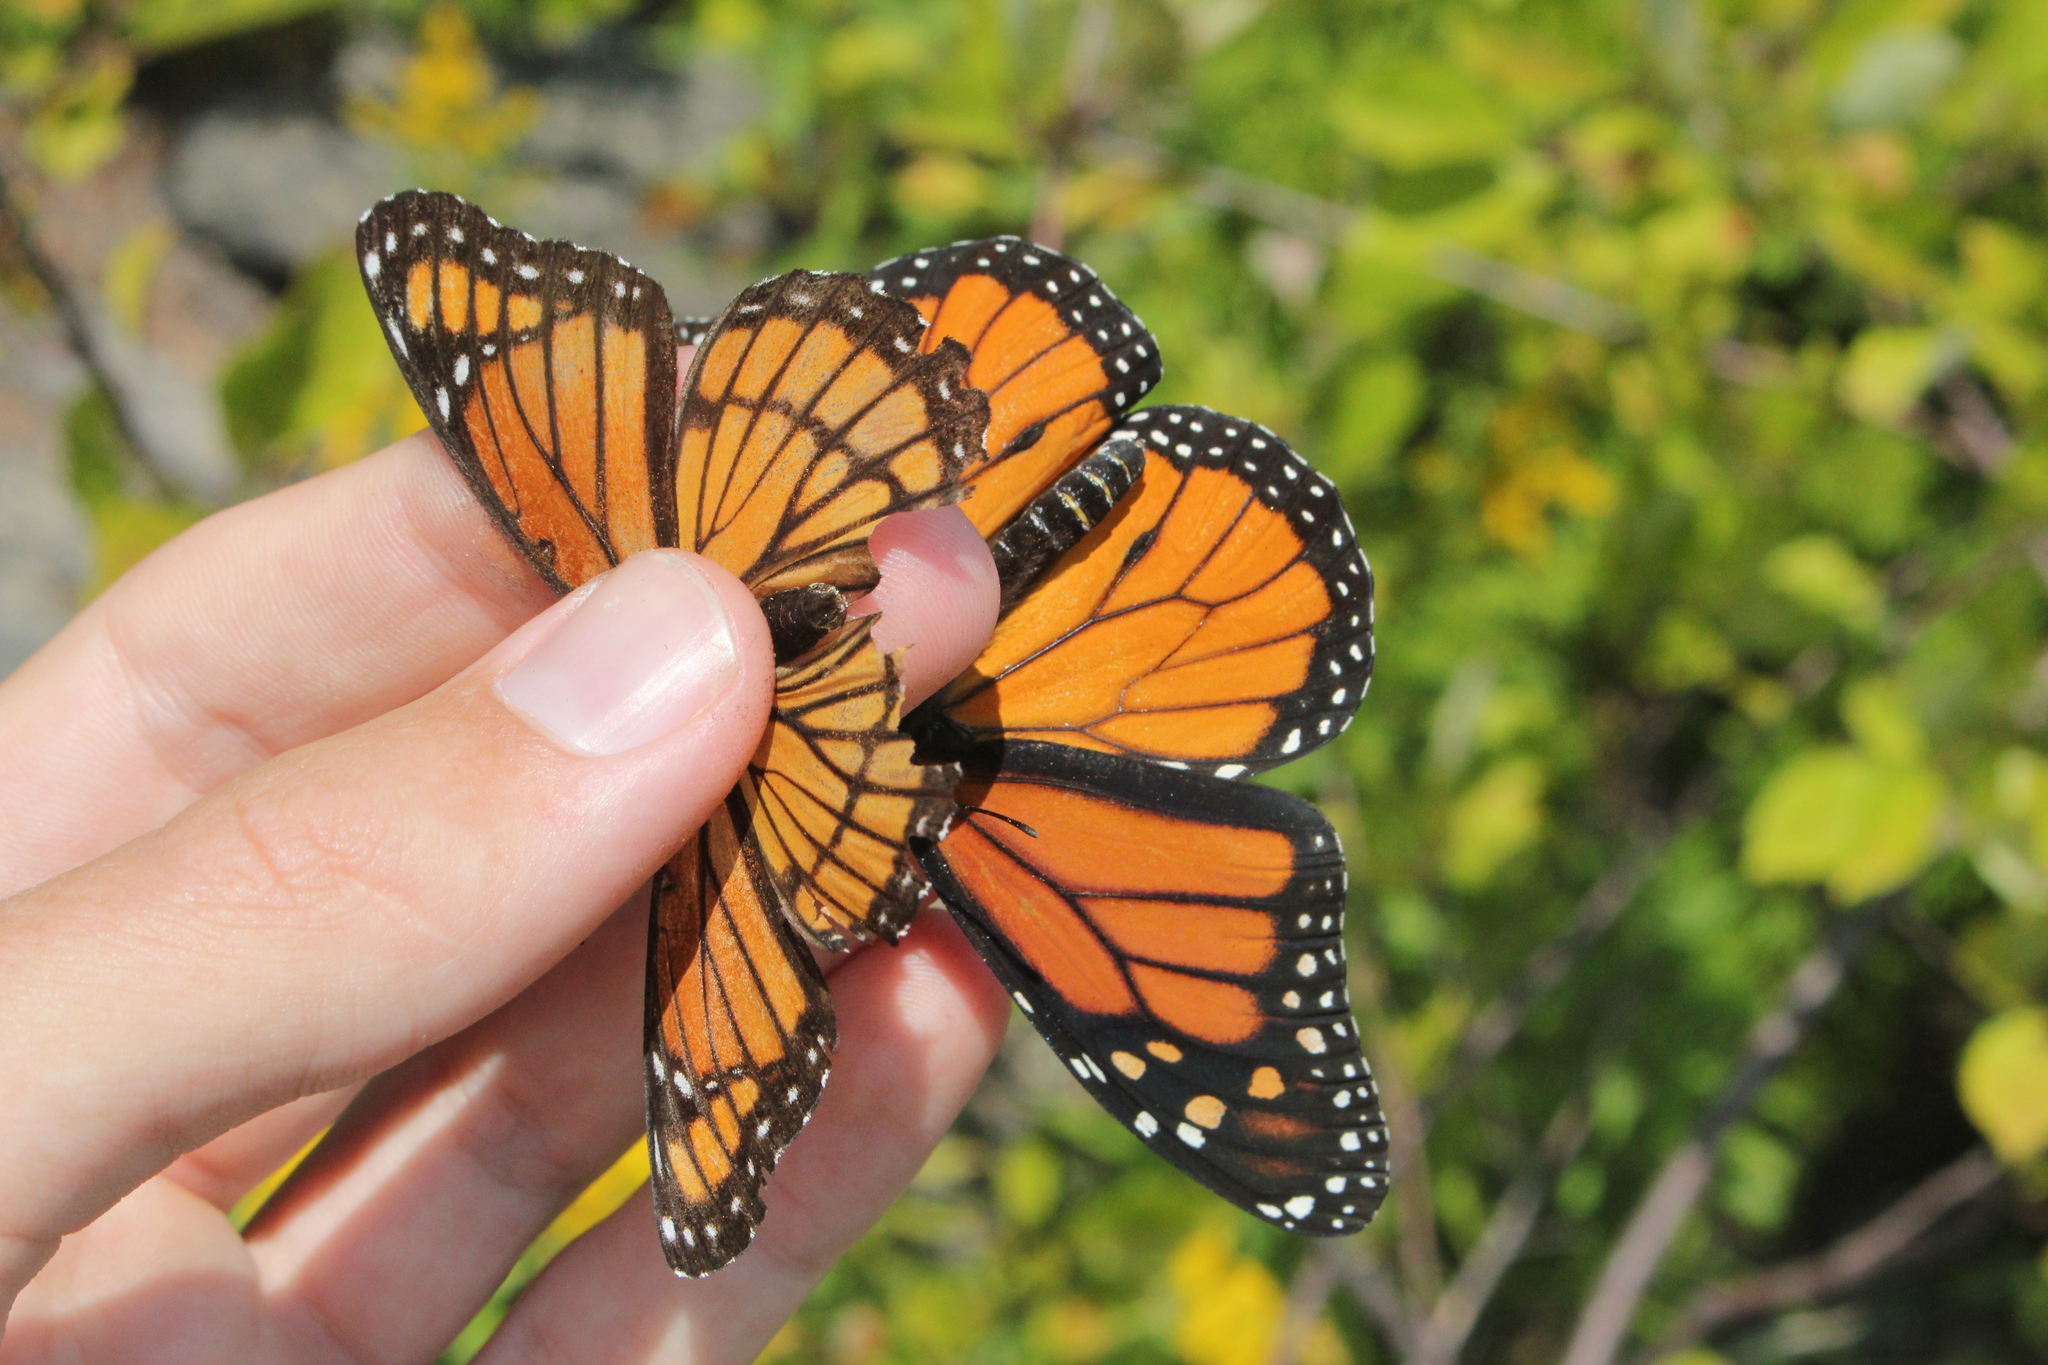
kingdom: Animalia
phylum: Arthropoda
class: Insecta
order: Lepidoptera
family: Nymphalidae
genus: Limenitis
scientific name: Limenitis archippus
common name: Viceroy
